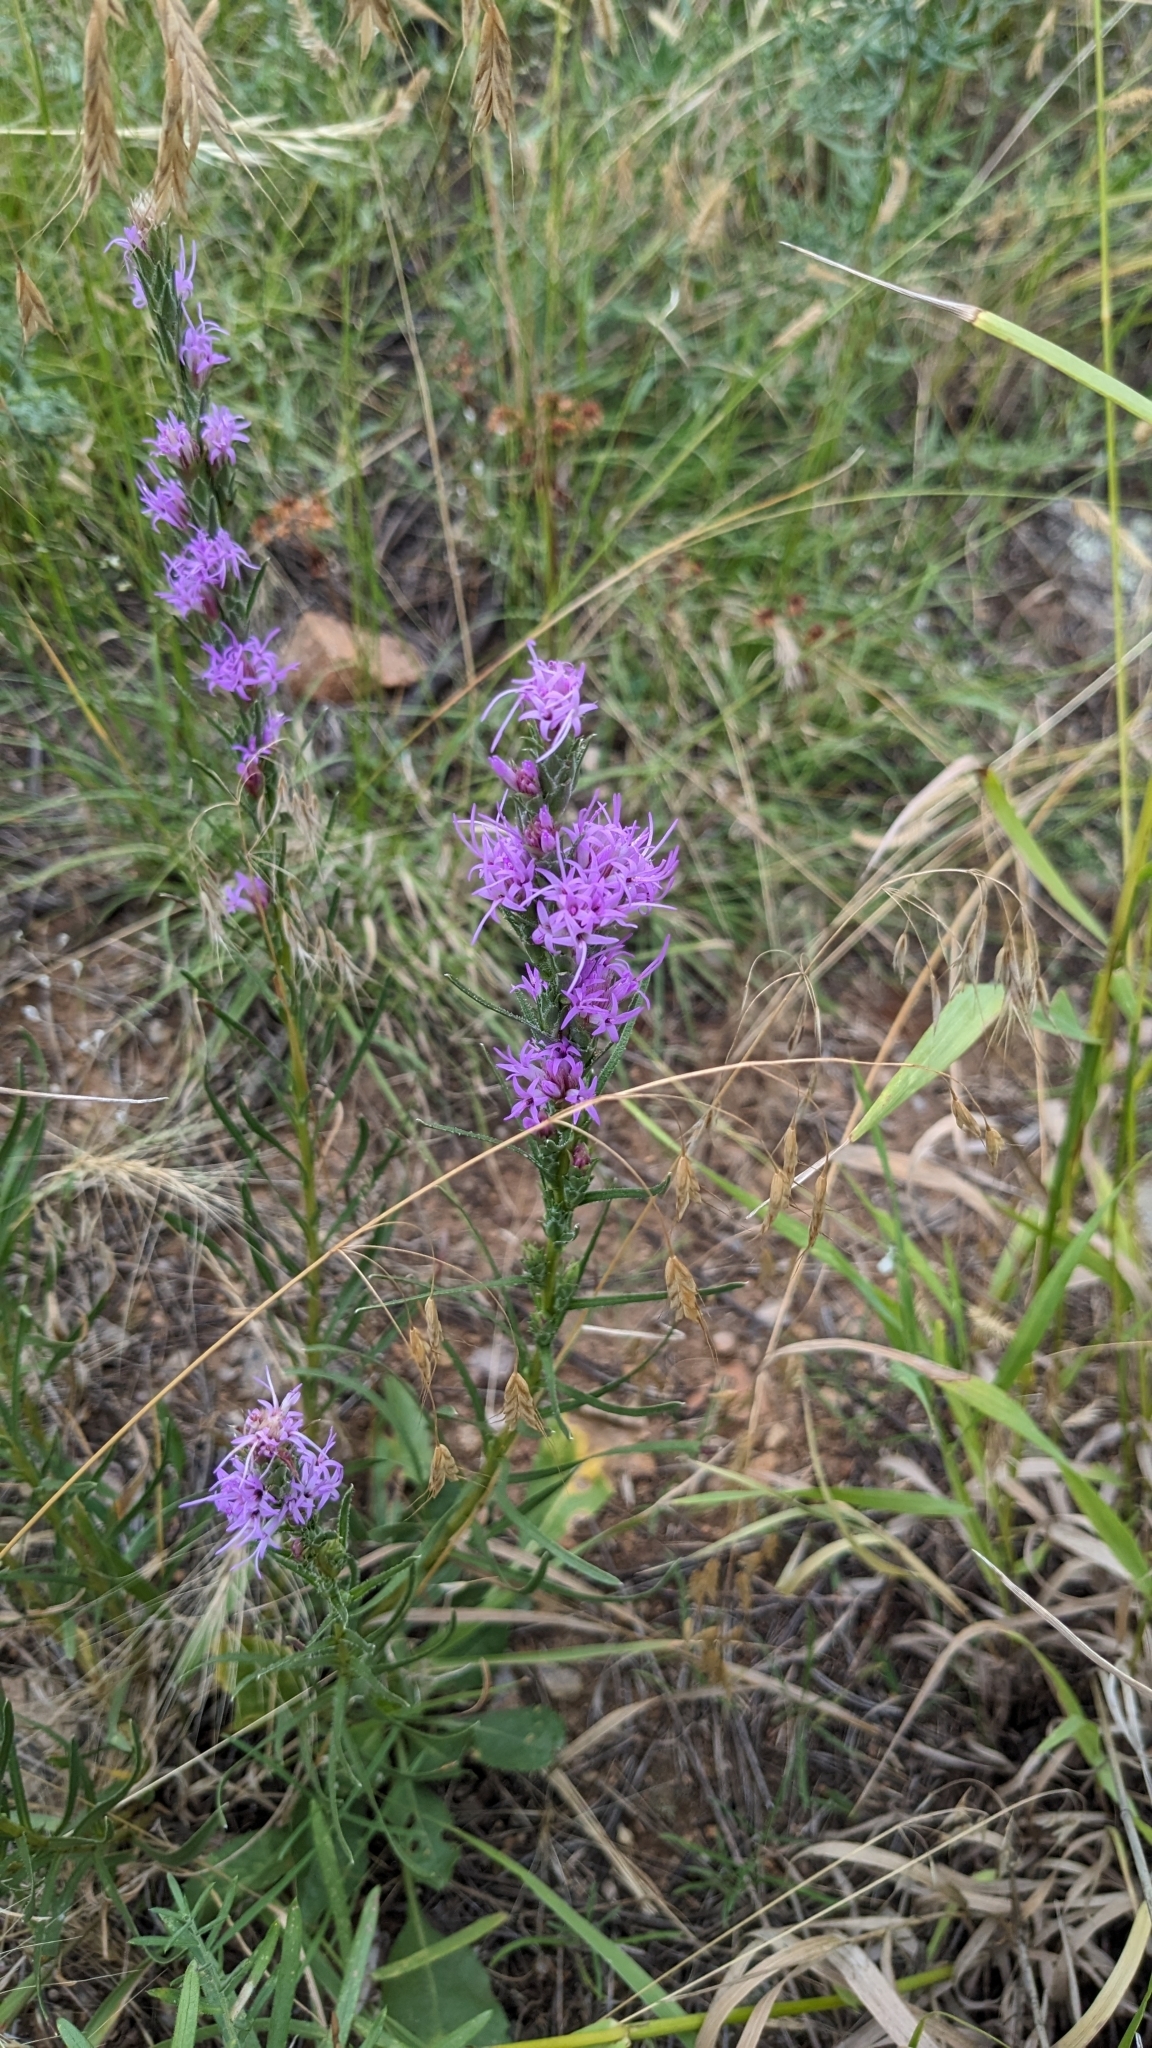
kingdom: Plantae
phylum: Tracheophyta
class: Magnoliopsida
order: Asterales
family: Asteraceae
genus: Liatris
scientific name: Liatris punctata
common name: Dotted gayfeather
